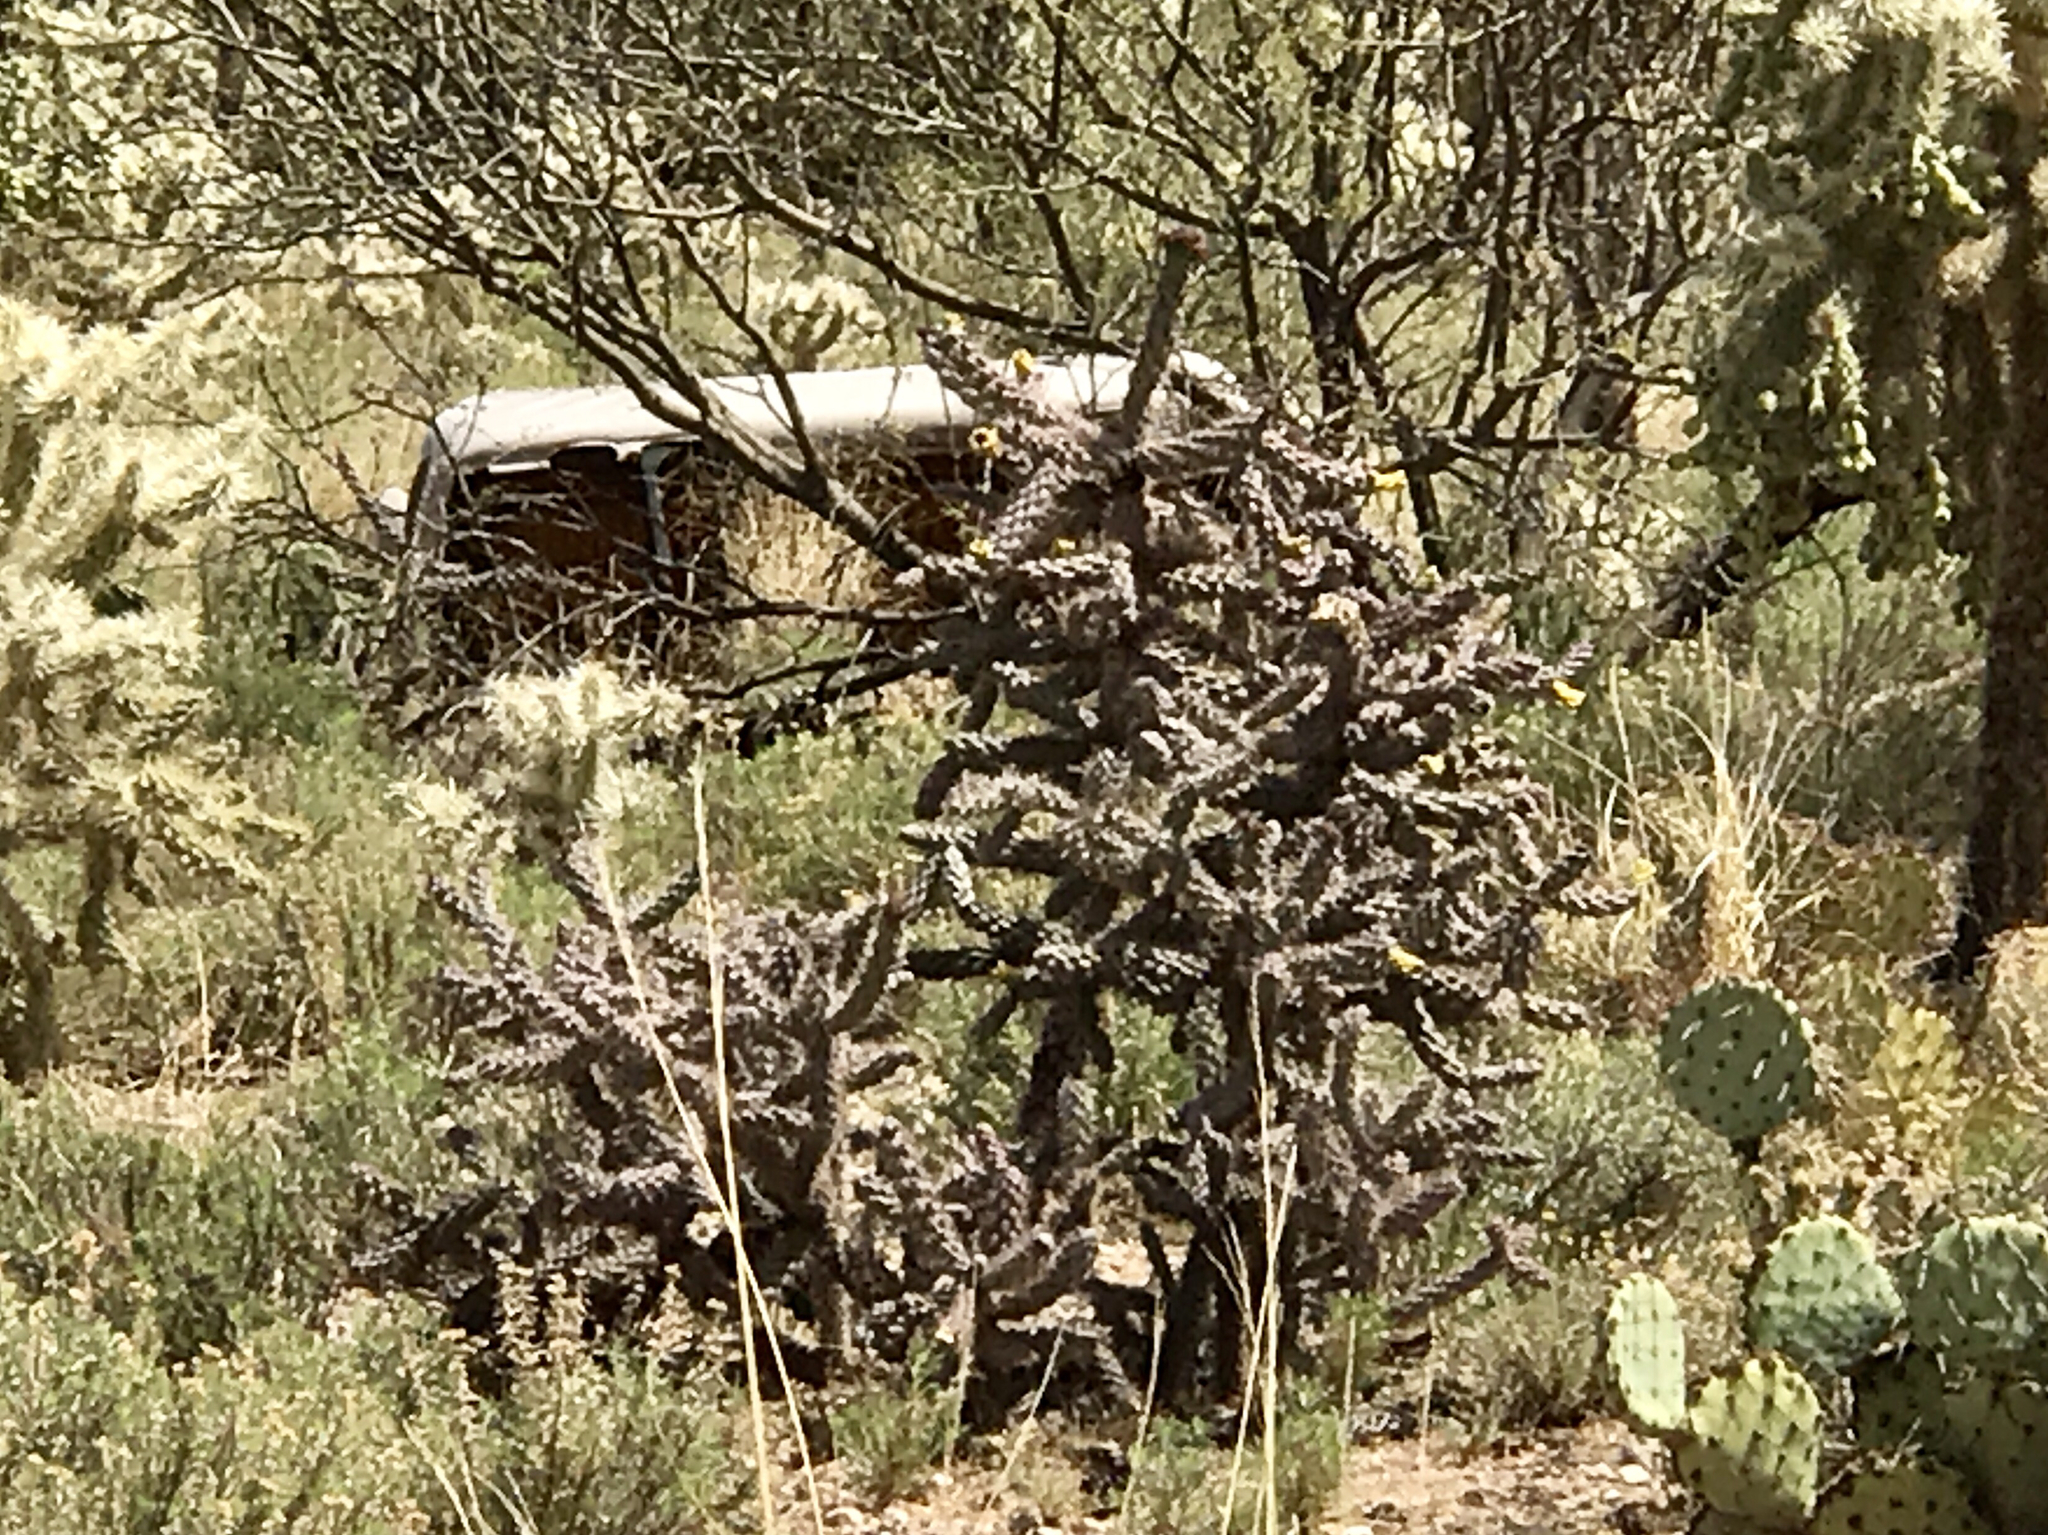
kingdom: Plantae
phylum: Tracheophyta
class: Magnoliopsida
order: Caryophyllales
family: Cactaceae
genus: Cylindropuntia
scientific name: Cylindropuntia thurberi
